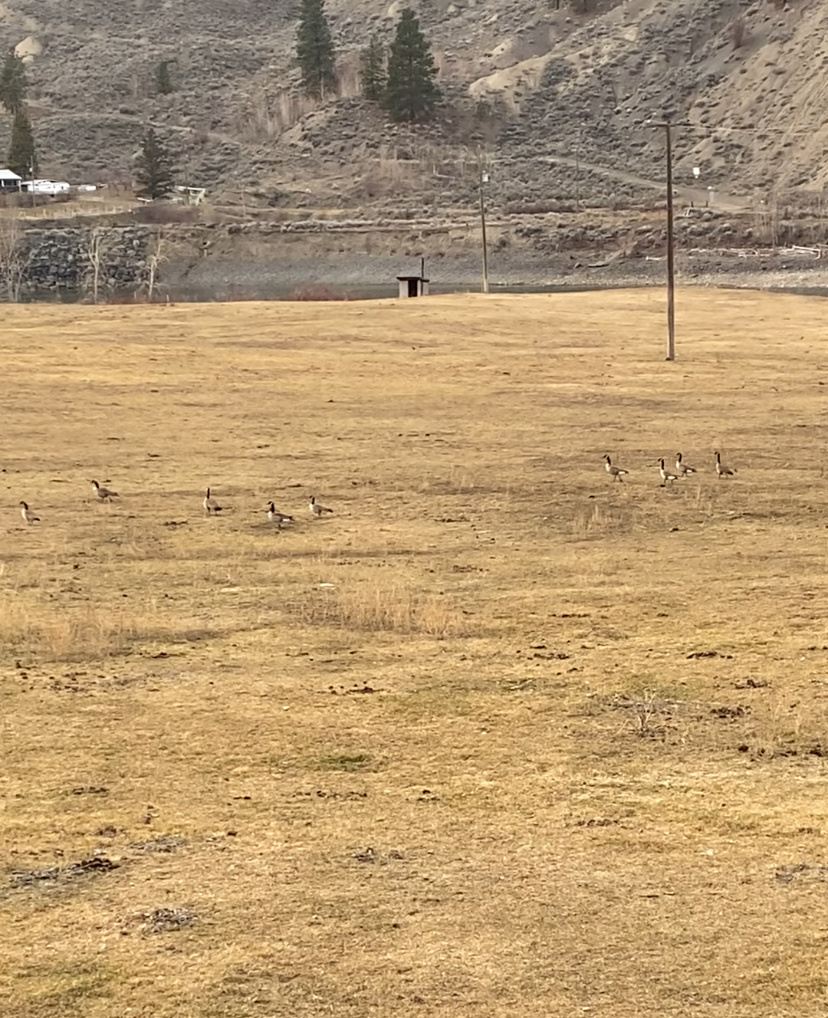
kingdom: Animalia
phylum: Chordata
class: Aves
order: Anseriformes
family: Anatidae
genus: Branta
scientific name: Branta canadensis
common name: Canada goose
